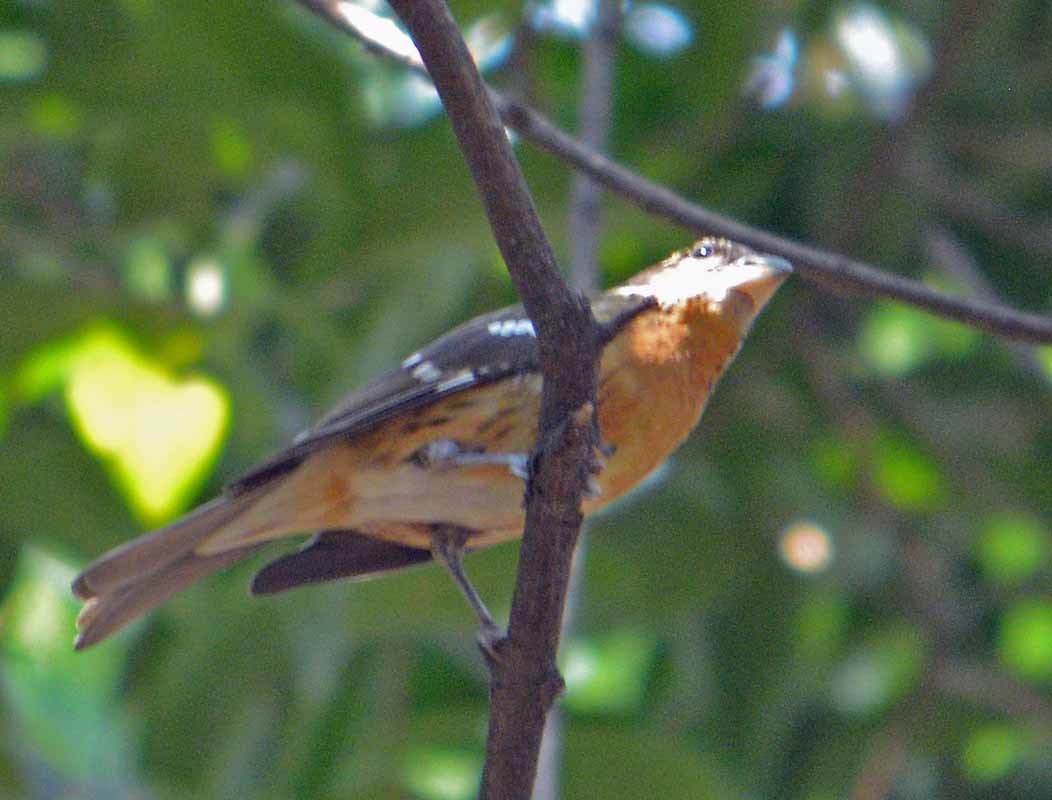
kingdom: Animalia
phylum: Chordata
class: Aves
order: Passeriformes
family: Cardinalidae
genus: Pheucticus
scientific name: Pheucticus melanocephalus
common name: Black-headed grosbeak
